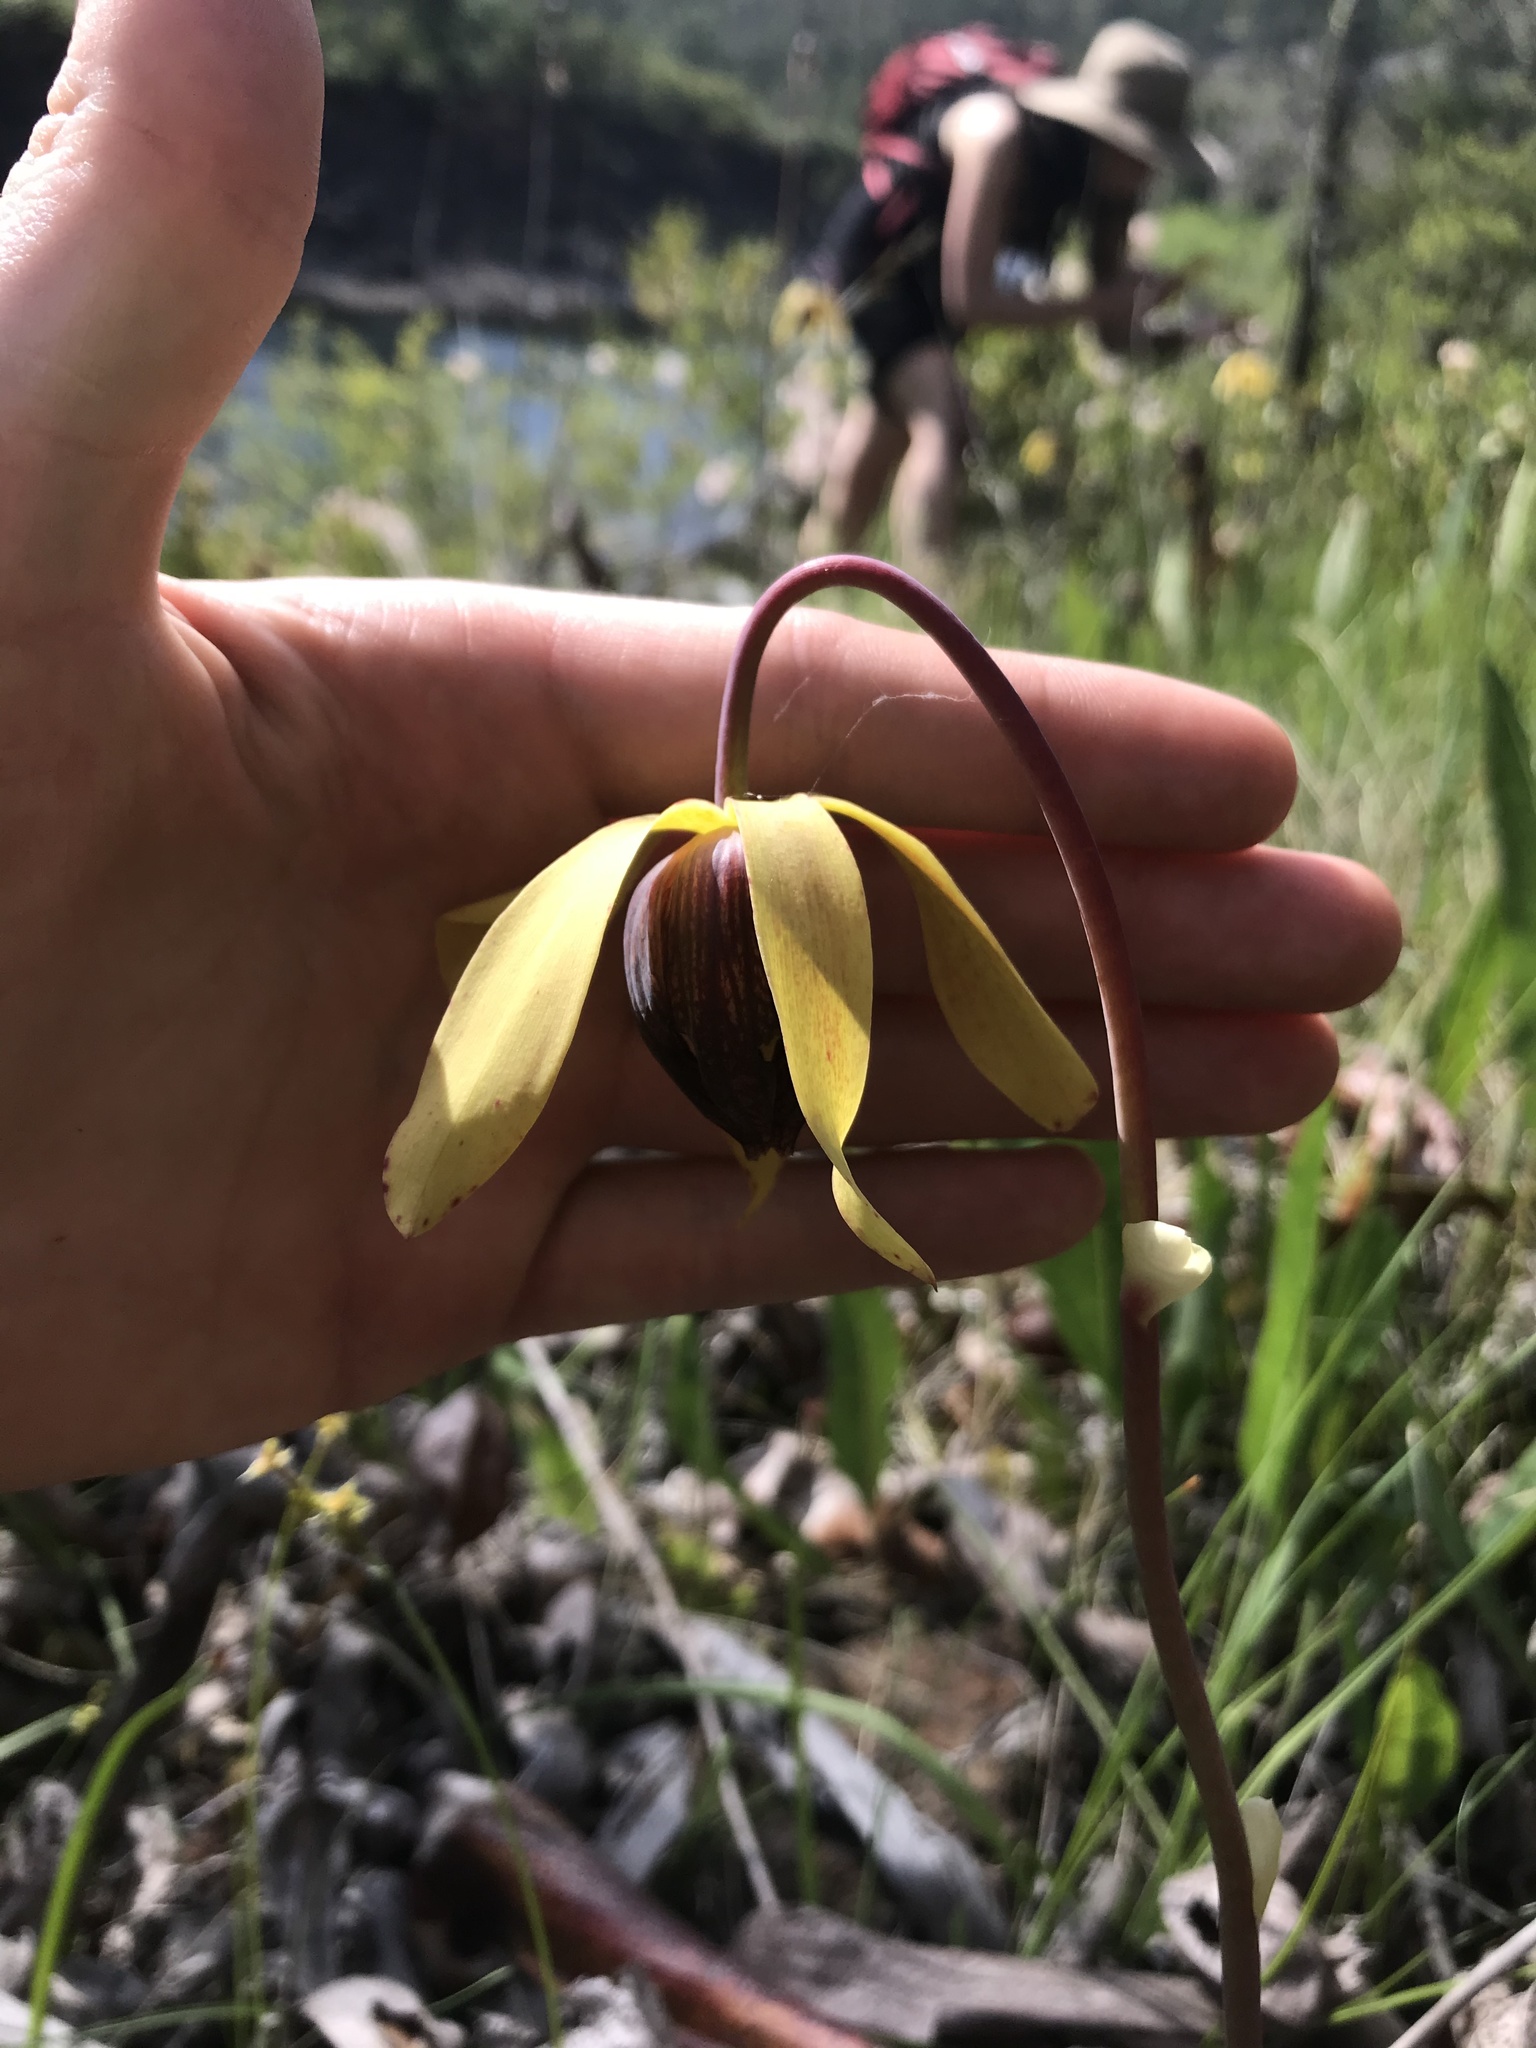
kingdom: Plantae
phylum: Tracheophyta
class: Magnoliopsida
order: Ericales
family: Sarraceniaceae
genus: Darlingtonia
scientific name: Darlingtonia californica
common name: California pitcher plant
